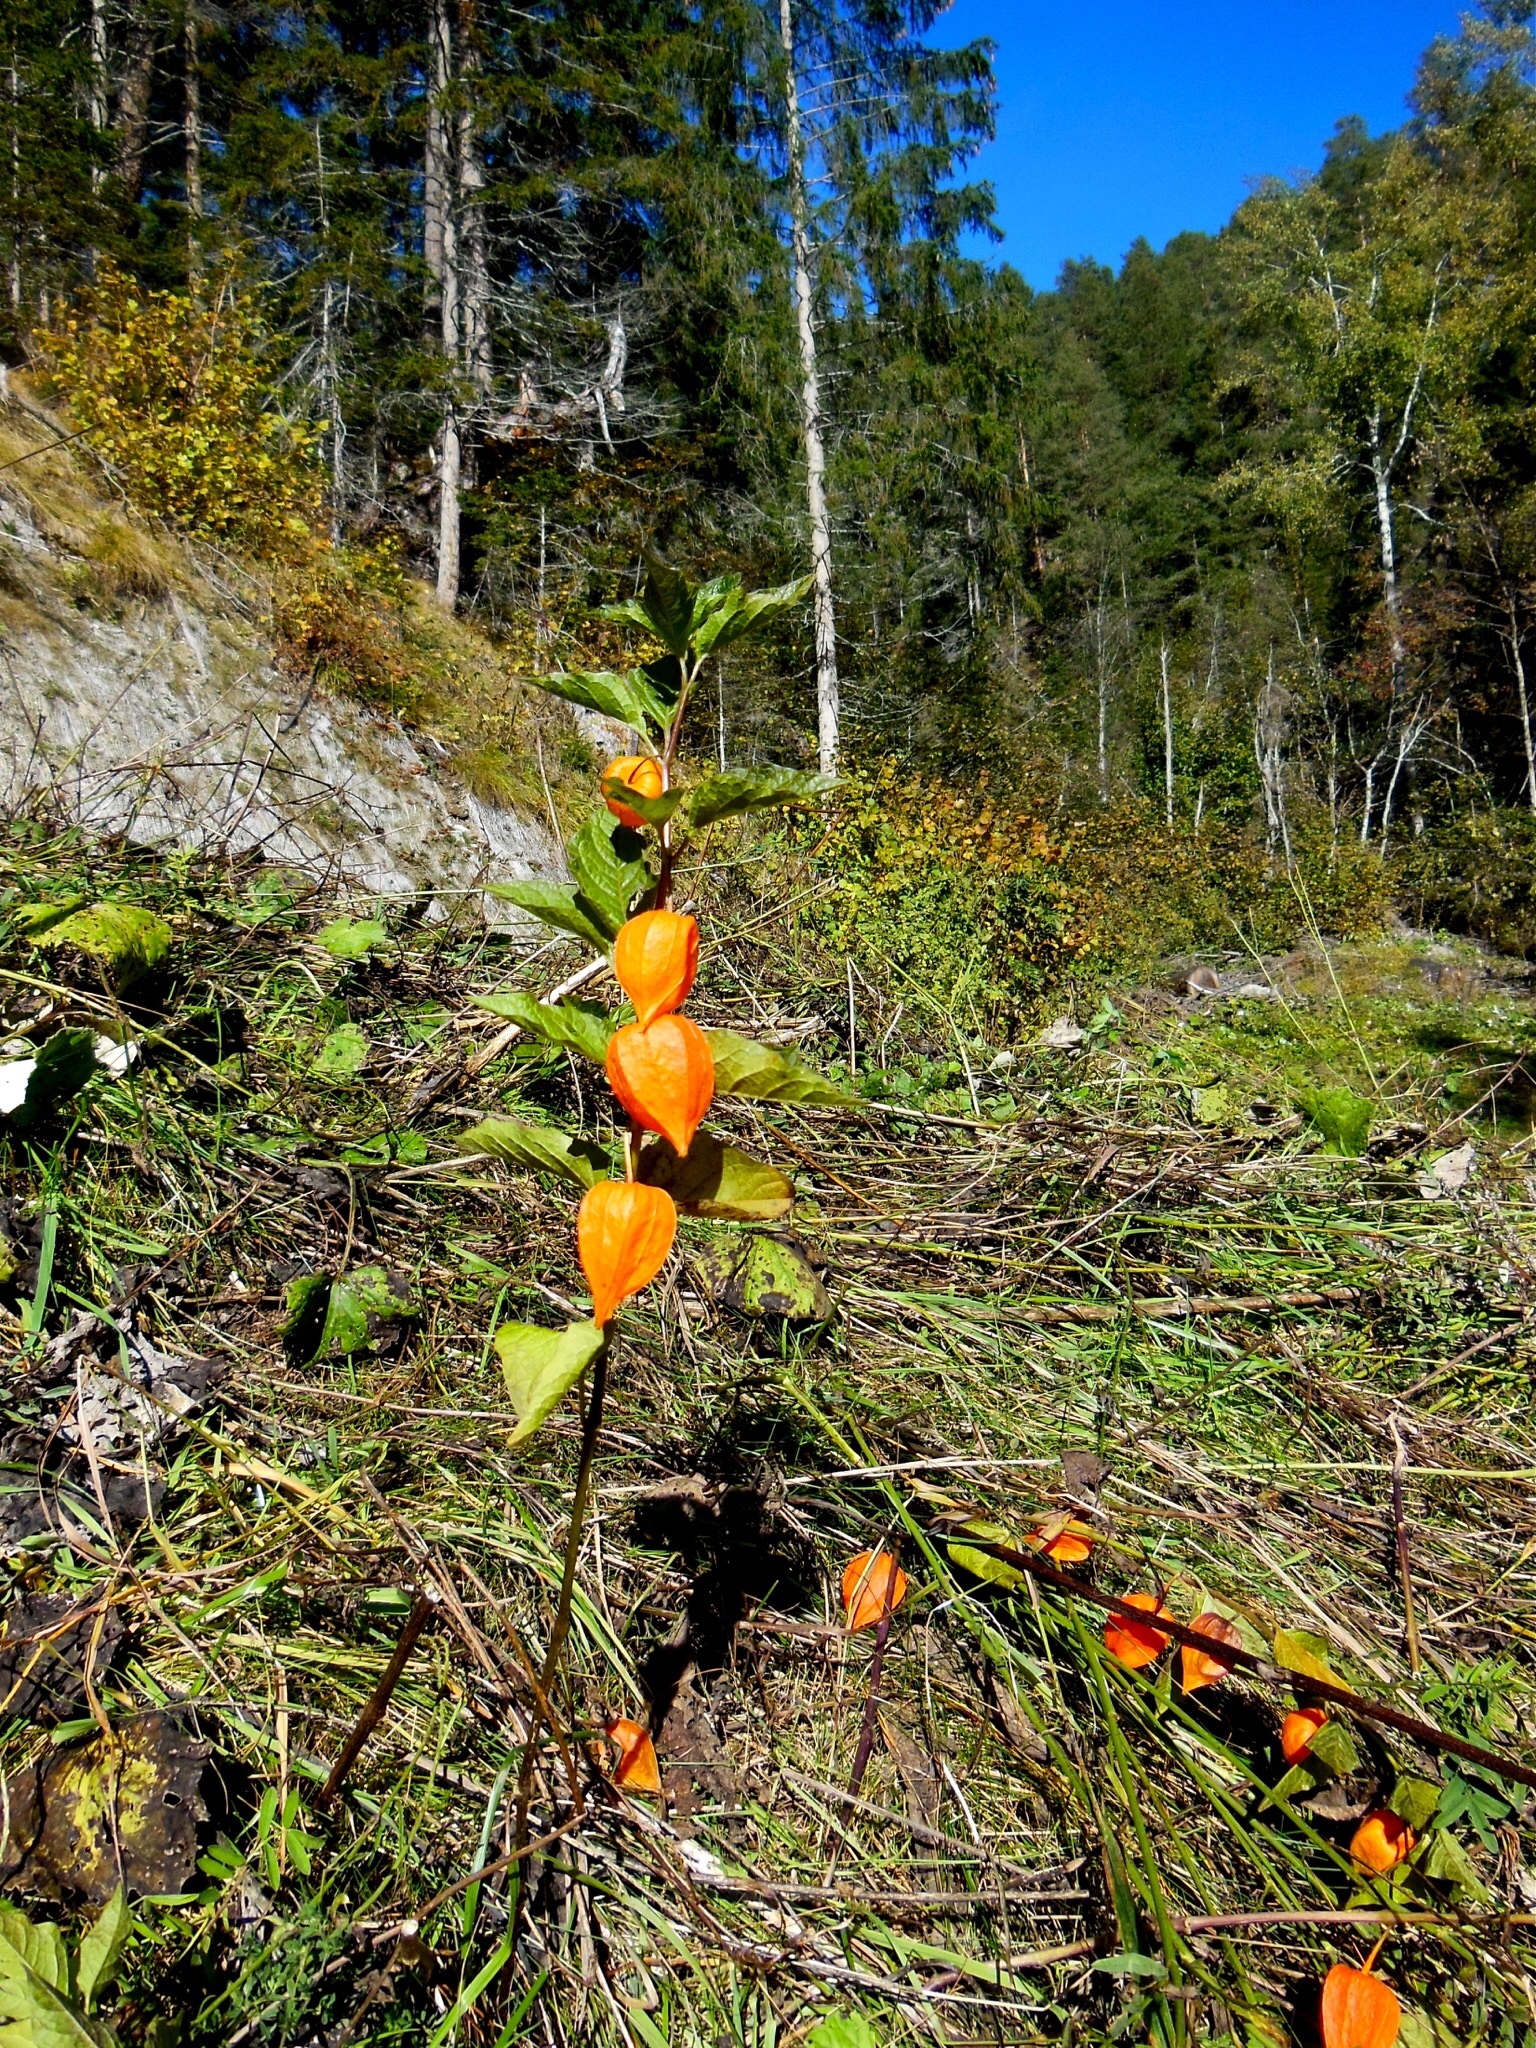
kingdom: Plantae
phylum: Tracheophyta
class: Magnoliopsida
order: Solanales
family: Solanaceae
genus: Alkekengi
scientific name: Alkekengi officinarum
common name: Japanese-lantern
